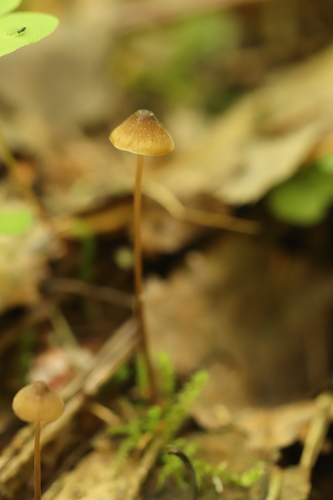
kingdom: Fungi
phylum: Basidiomycota
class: Agaricomycetes
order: Agaricales
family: Mycenaceae
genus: Mycena
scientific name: Mycena
